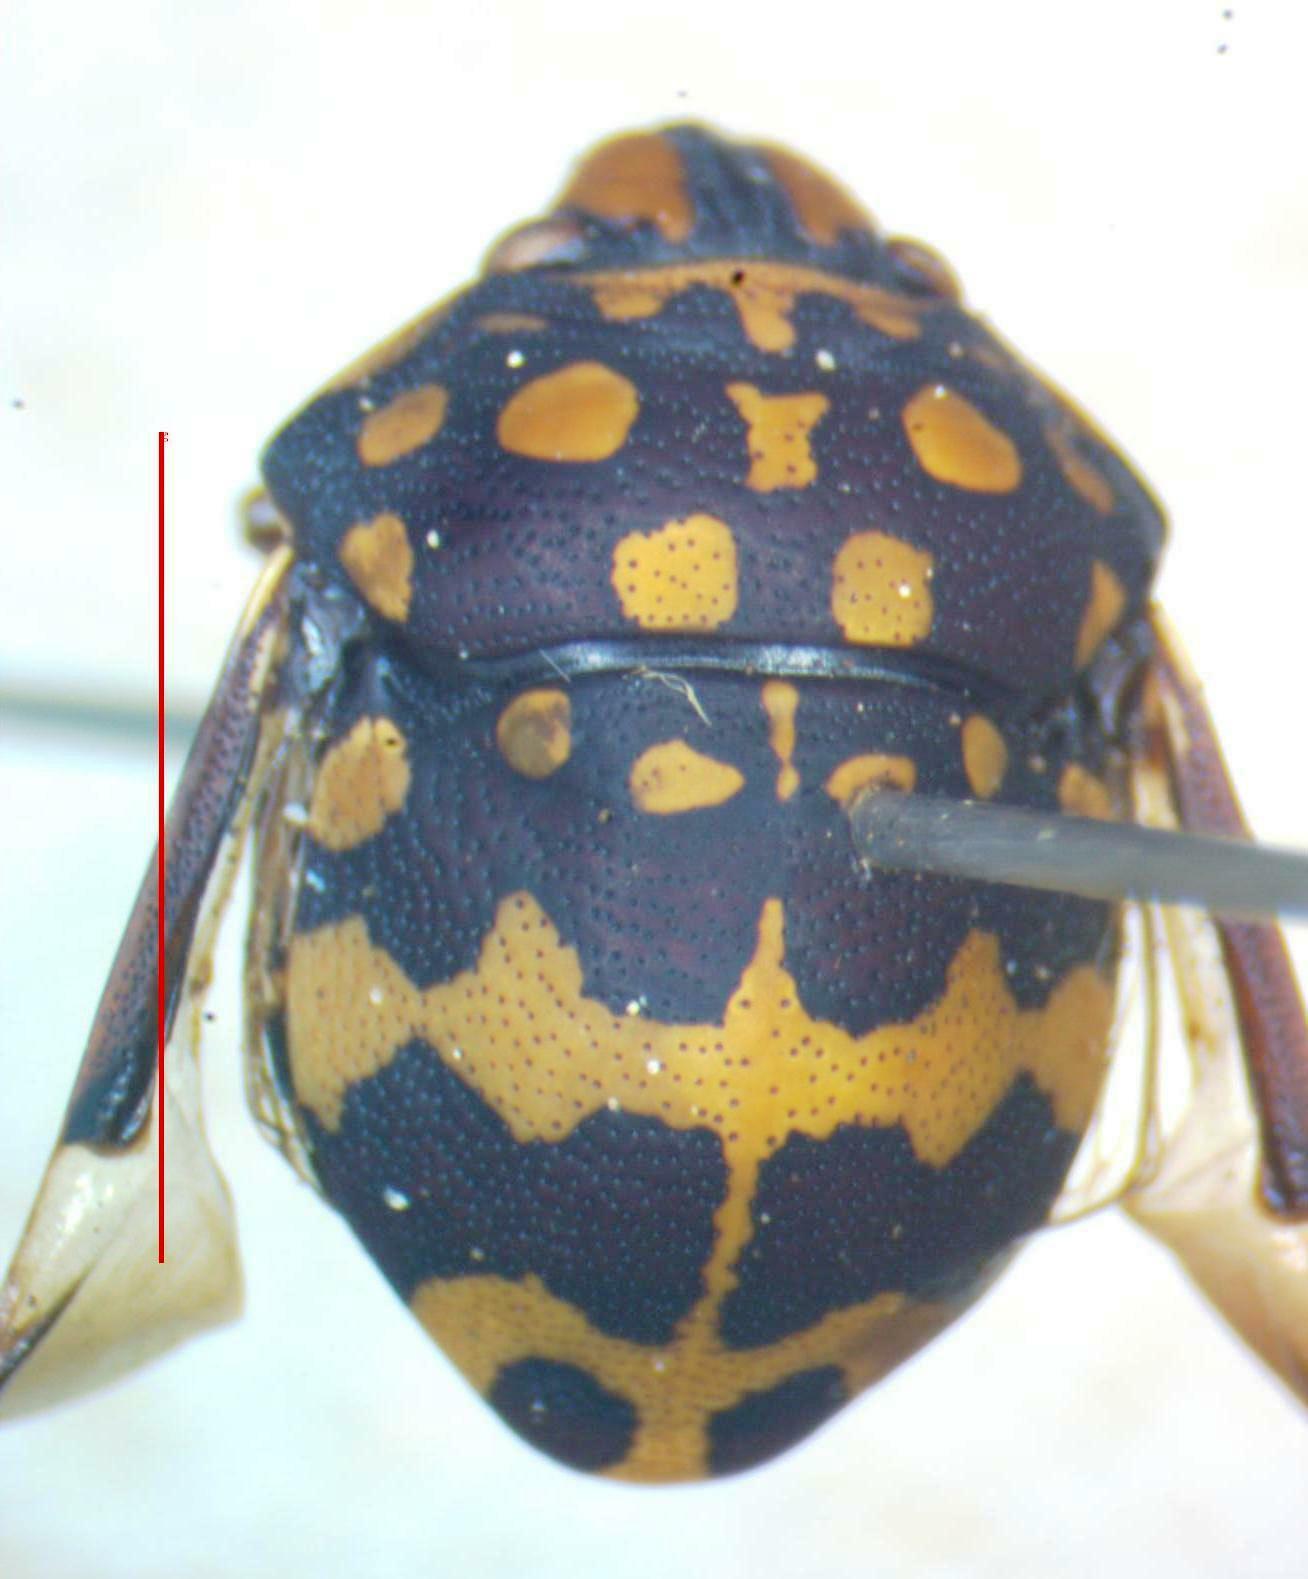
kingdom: Animalia
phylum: Arthropoda
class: Insecta
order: Hemiptera
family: Scutelleridae
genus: Orsilochides
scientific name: Orsilochides
